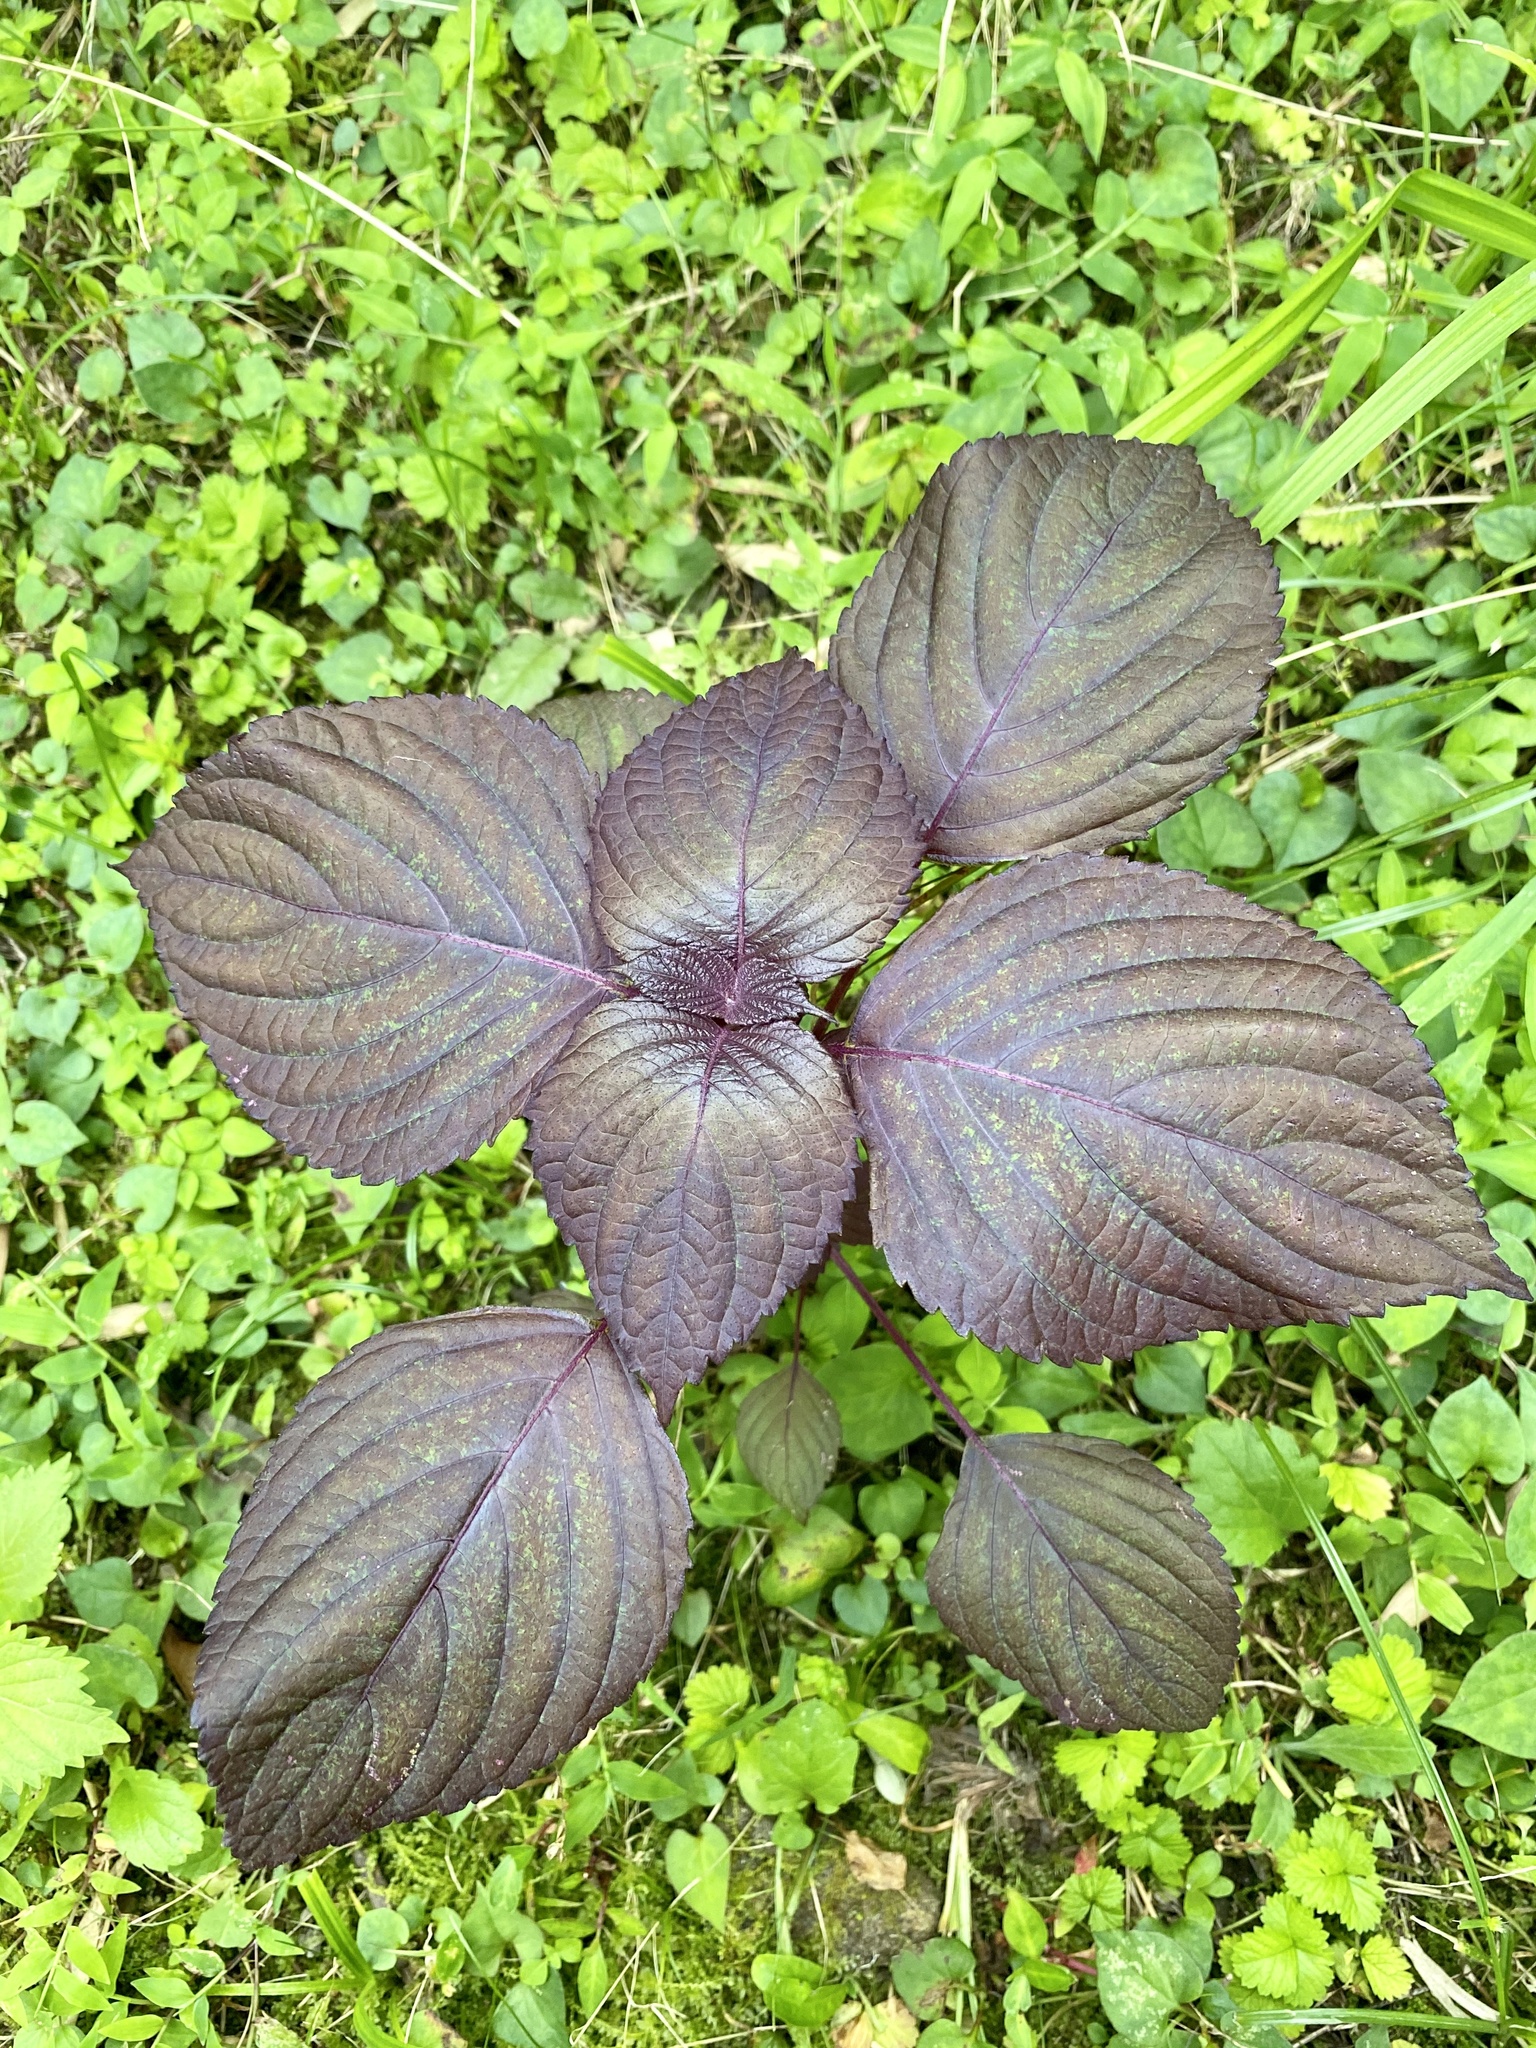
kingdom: Plantae
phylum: Tracheophyta
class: Magnoliopsida
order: Lamiales
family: Lamiaceae
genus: Perilla
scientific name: Perilla frutescens
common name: Perilla
